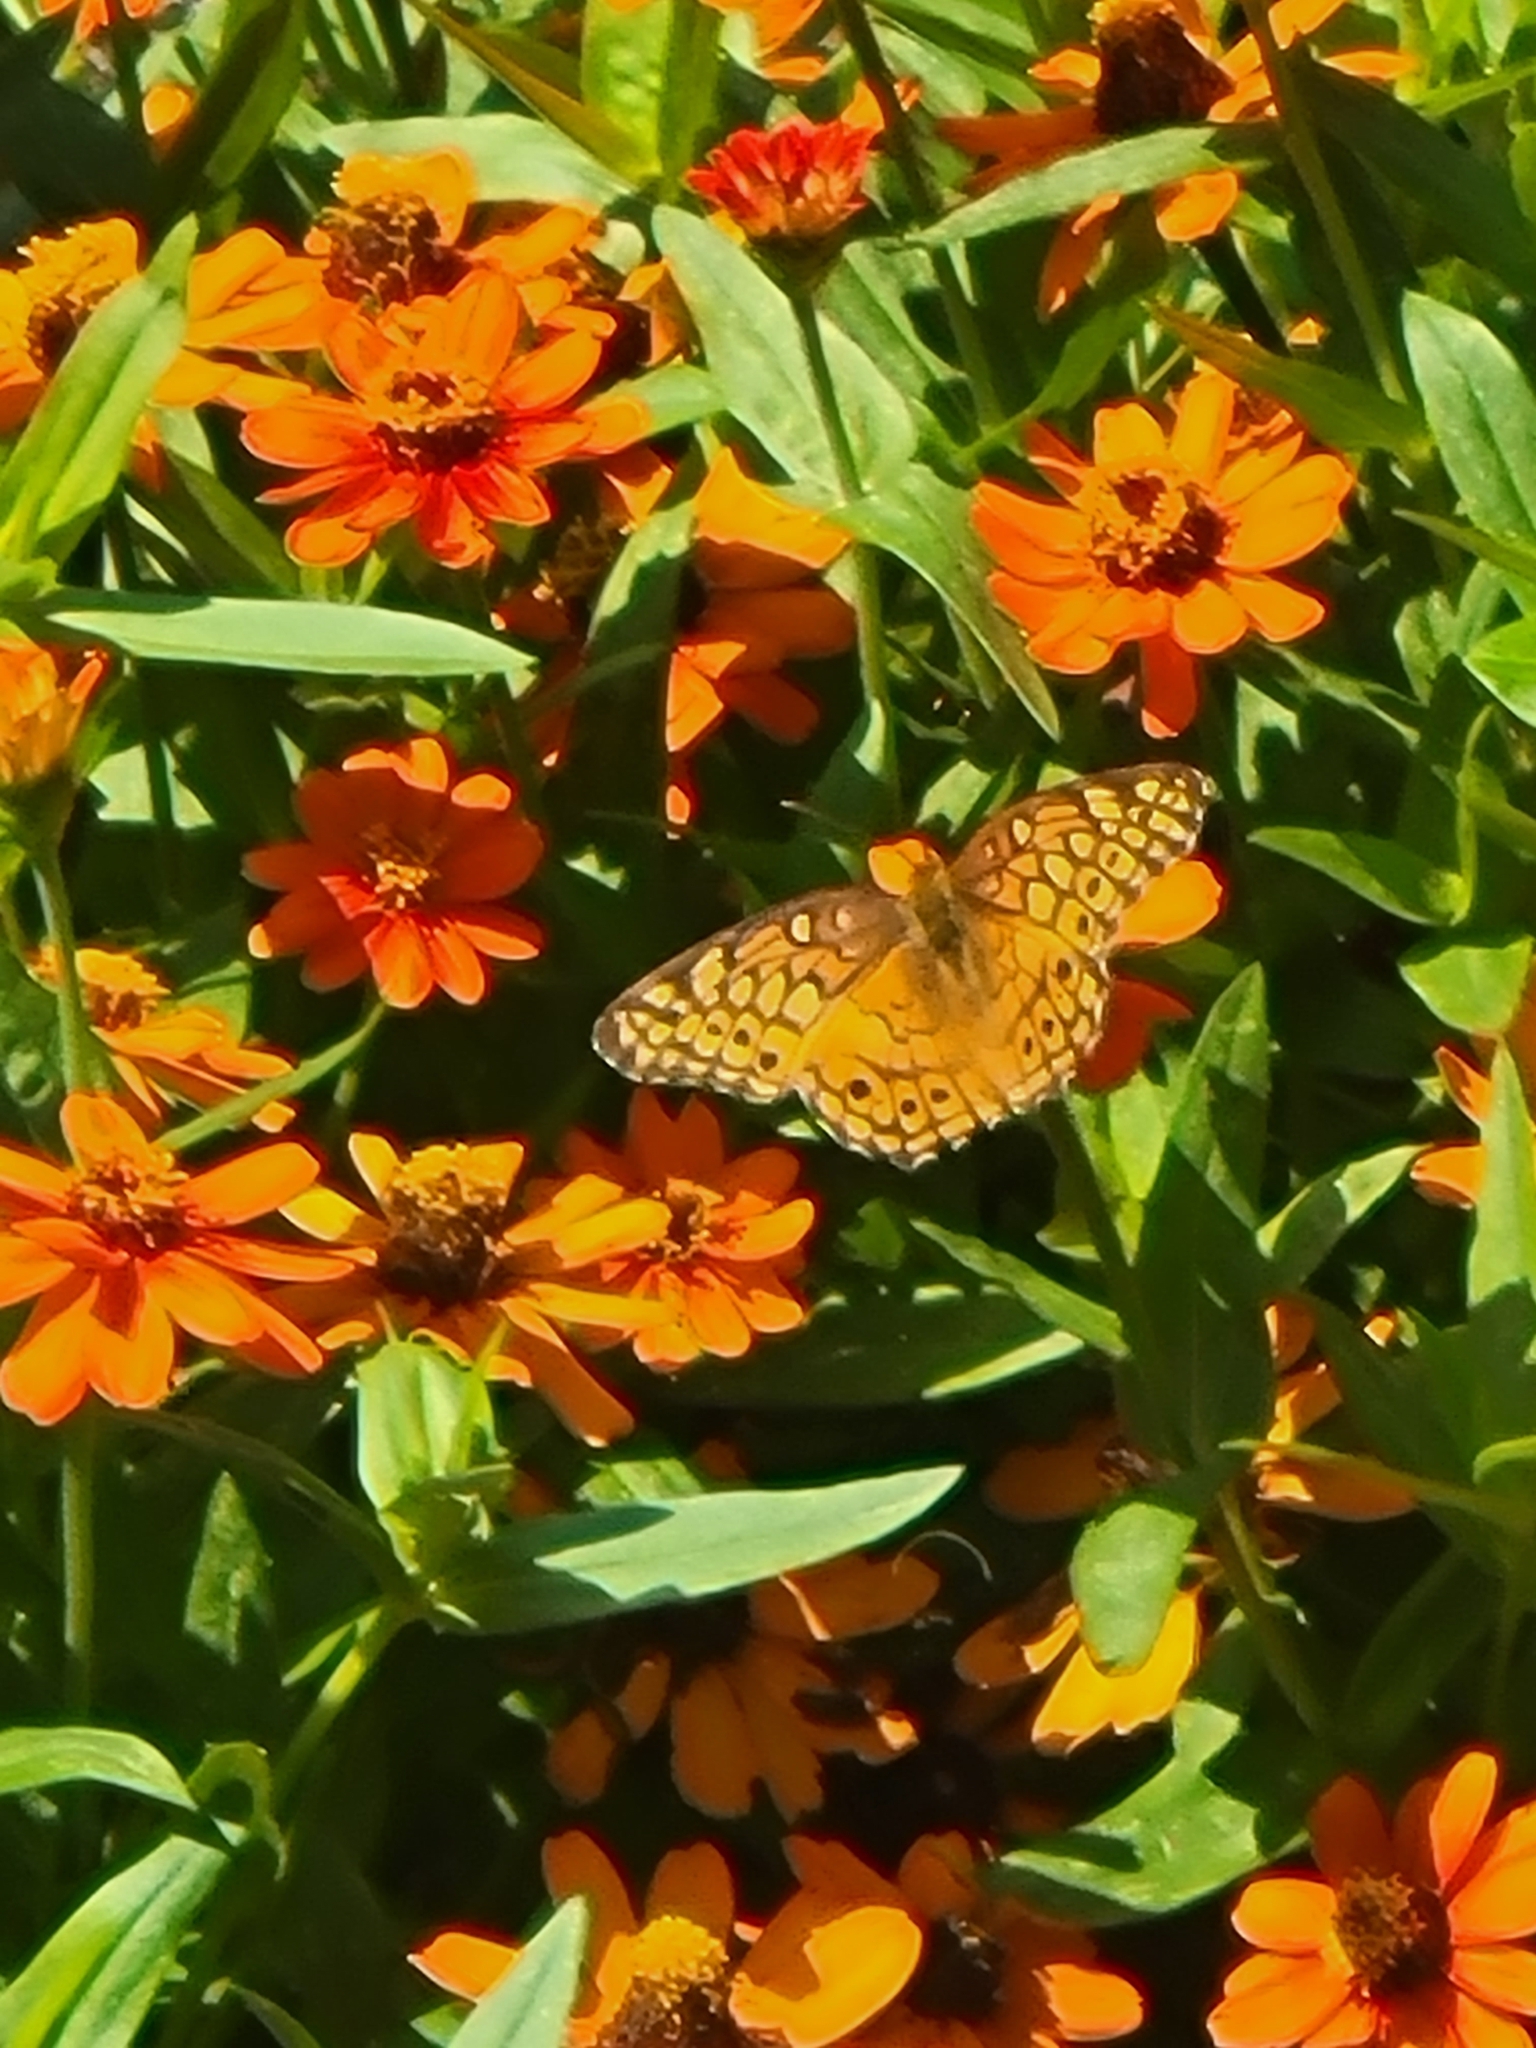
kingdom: Animalia
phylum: Arthropoda
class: Insecta
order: Lepidoptera
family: Nymphalidae
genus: Euptoieta
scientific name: Euptoieta claudia
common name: Variegated fritillary
